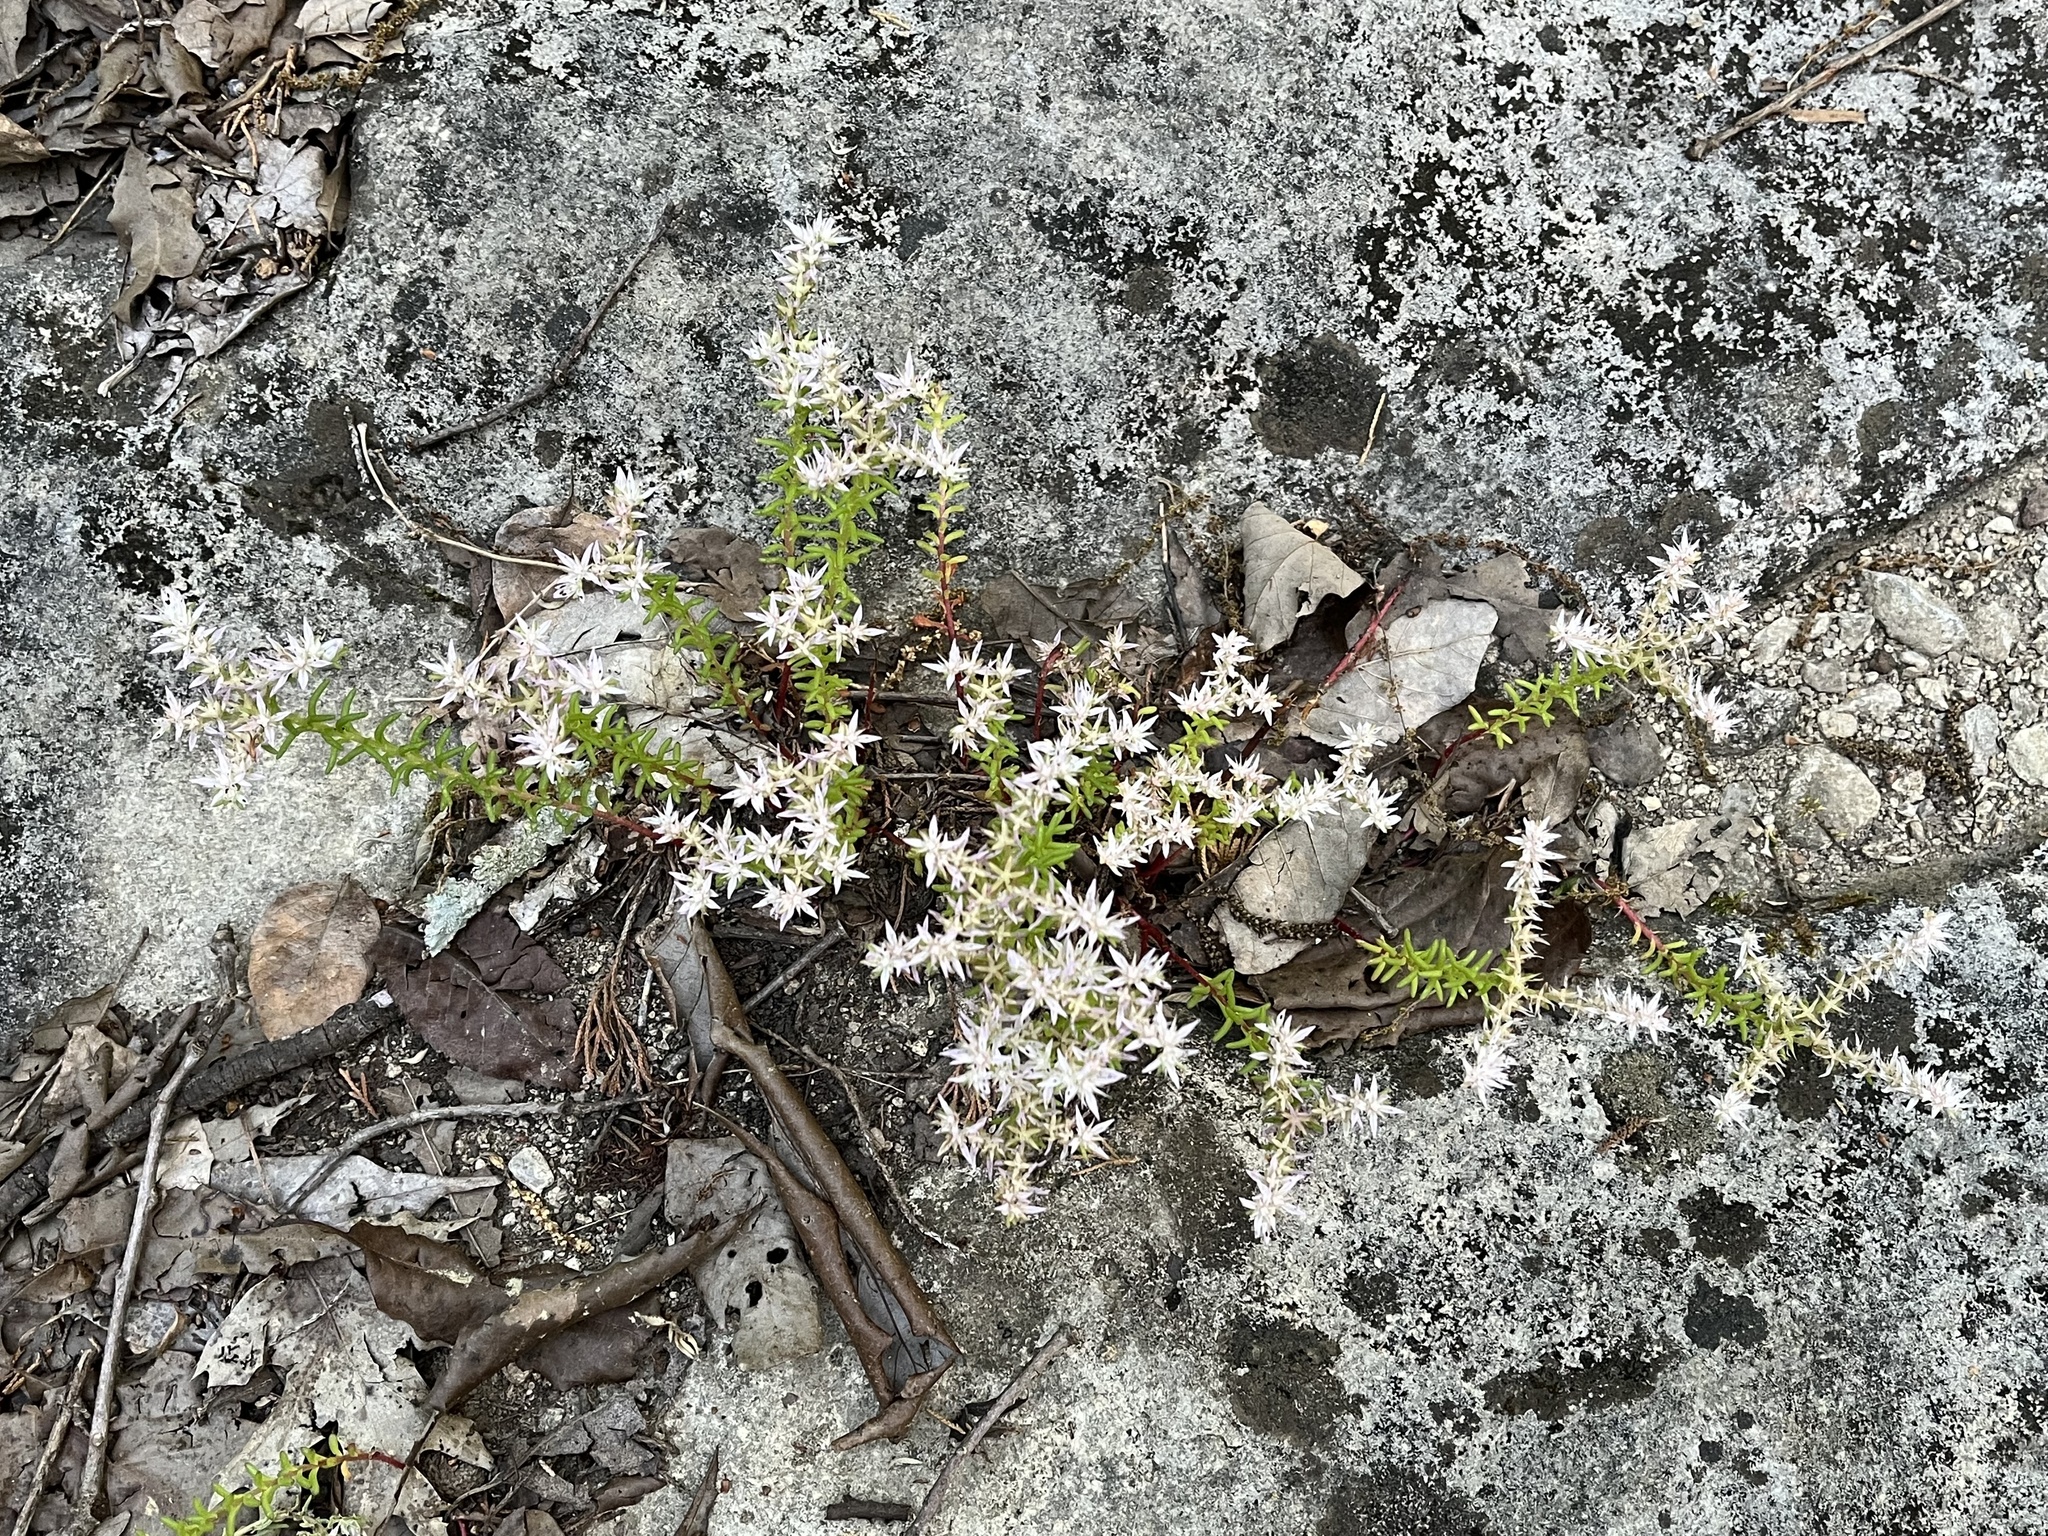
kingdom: Plantae
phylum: Tracheophyta
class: Magnoliopsida
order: Saxifragales
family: Crassulaceae
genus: Sedum
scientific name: Sedum pulchellum
